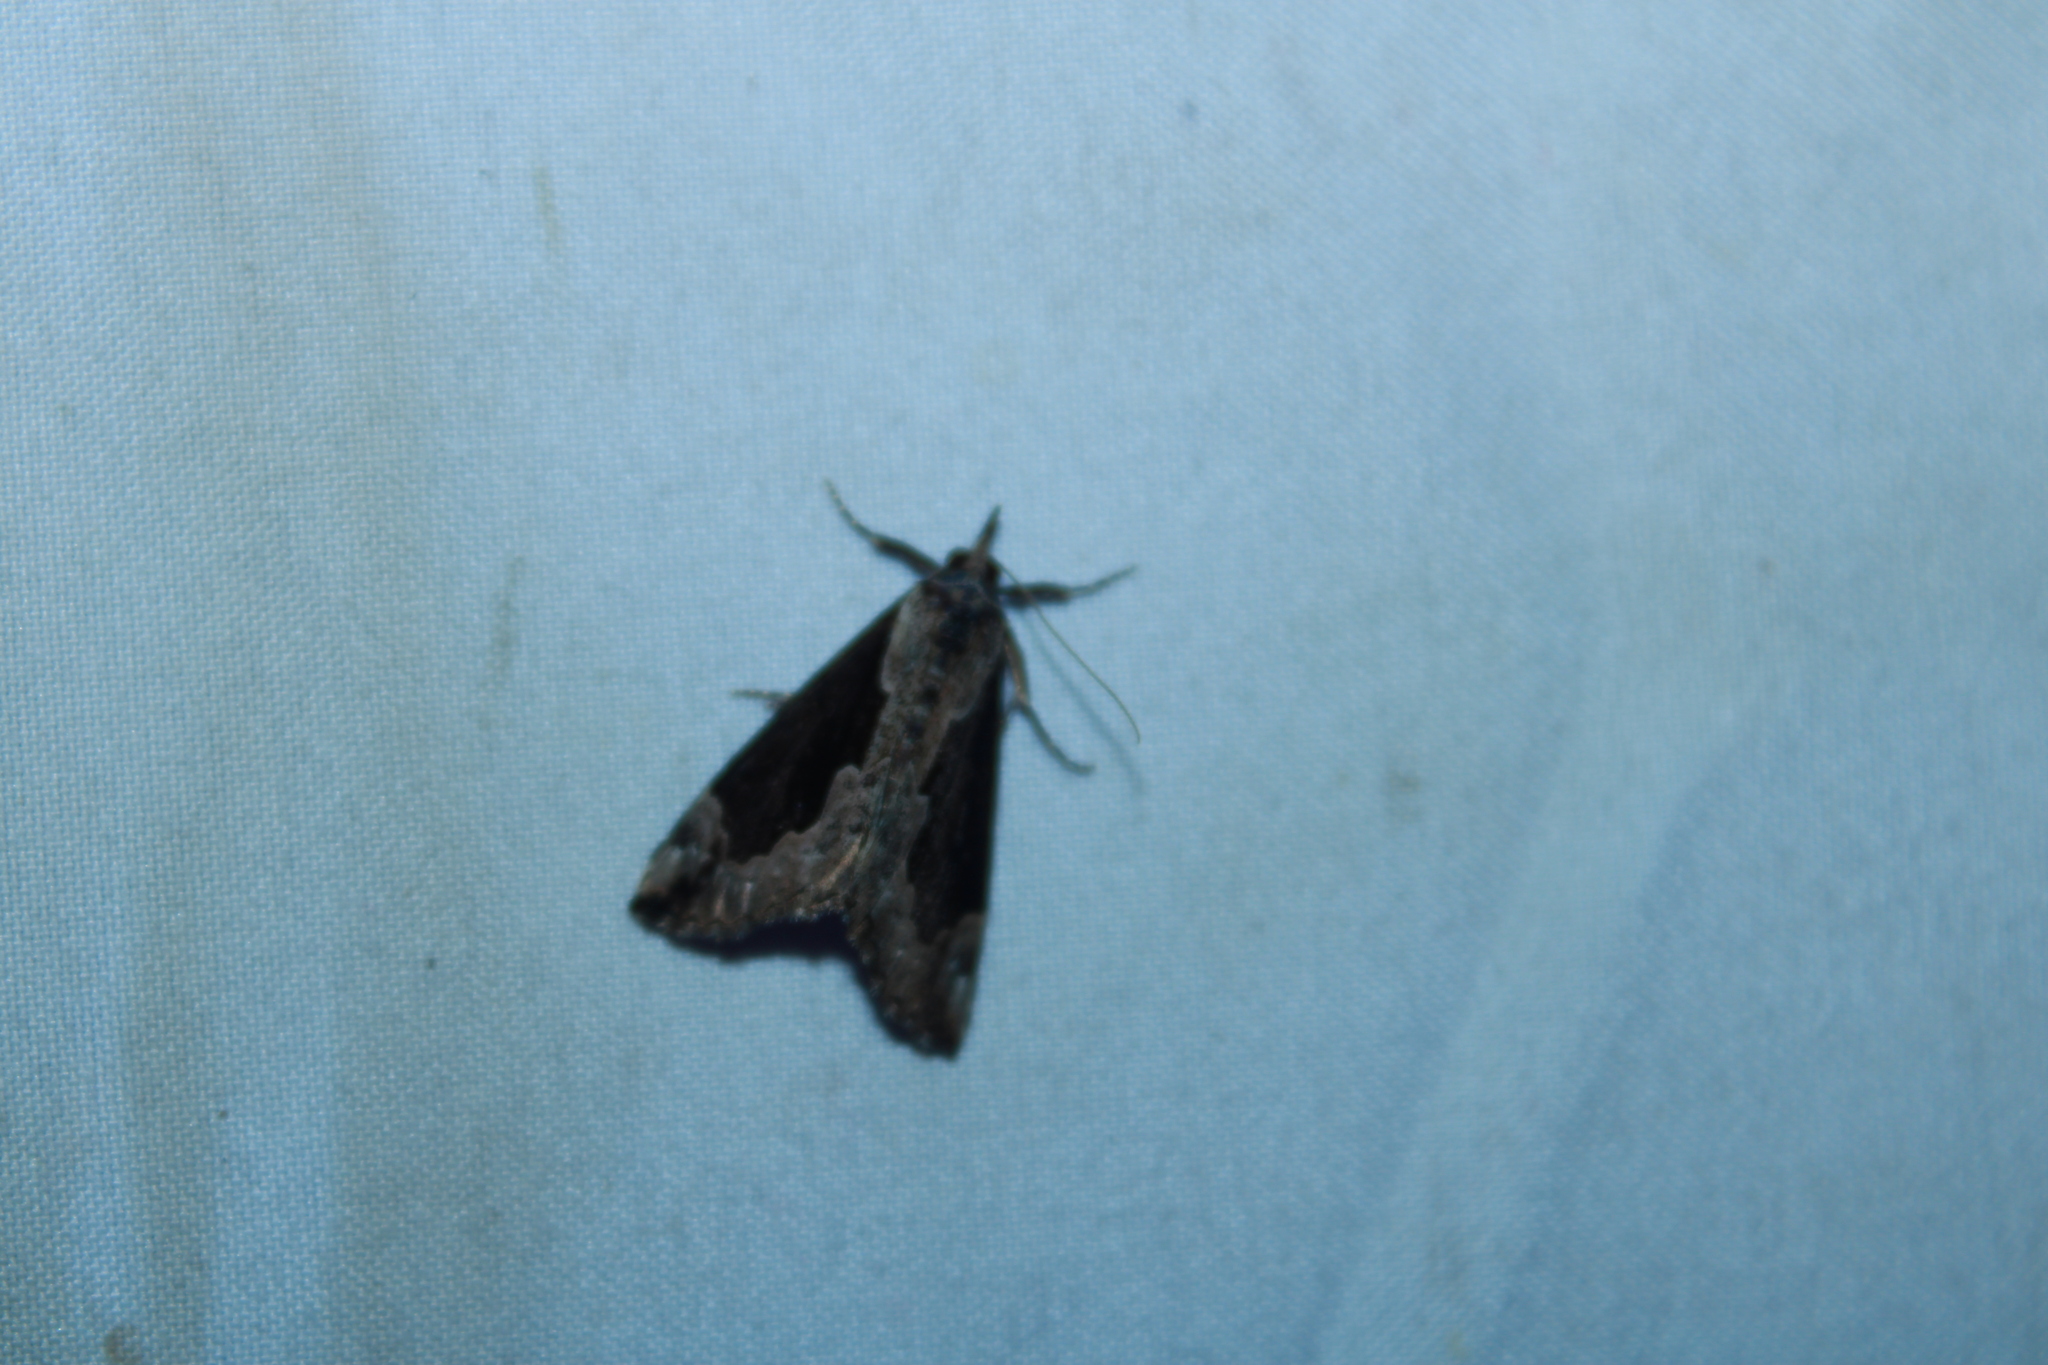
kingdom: Animalia
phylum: Arthropoda
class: Insecta
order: Lepidoptera
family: Erebidae
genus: Hypena
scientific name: Hypena baltimoralis
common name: Baltimore snout
